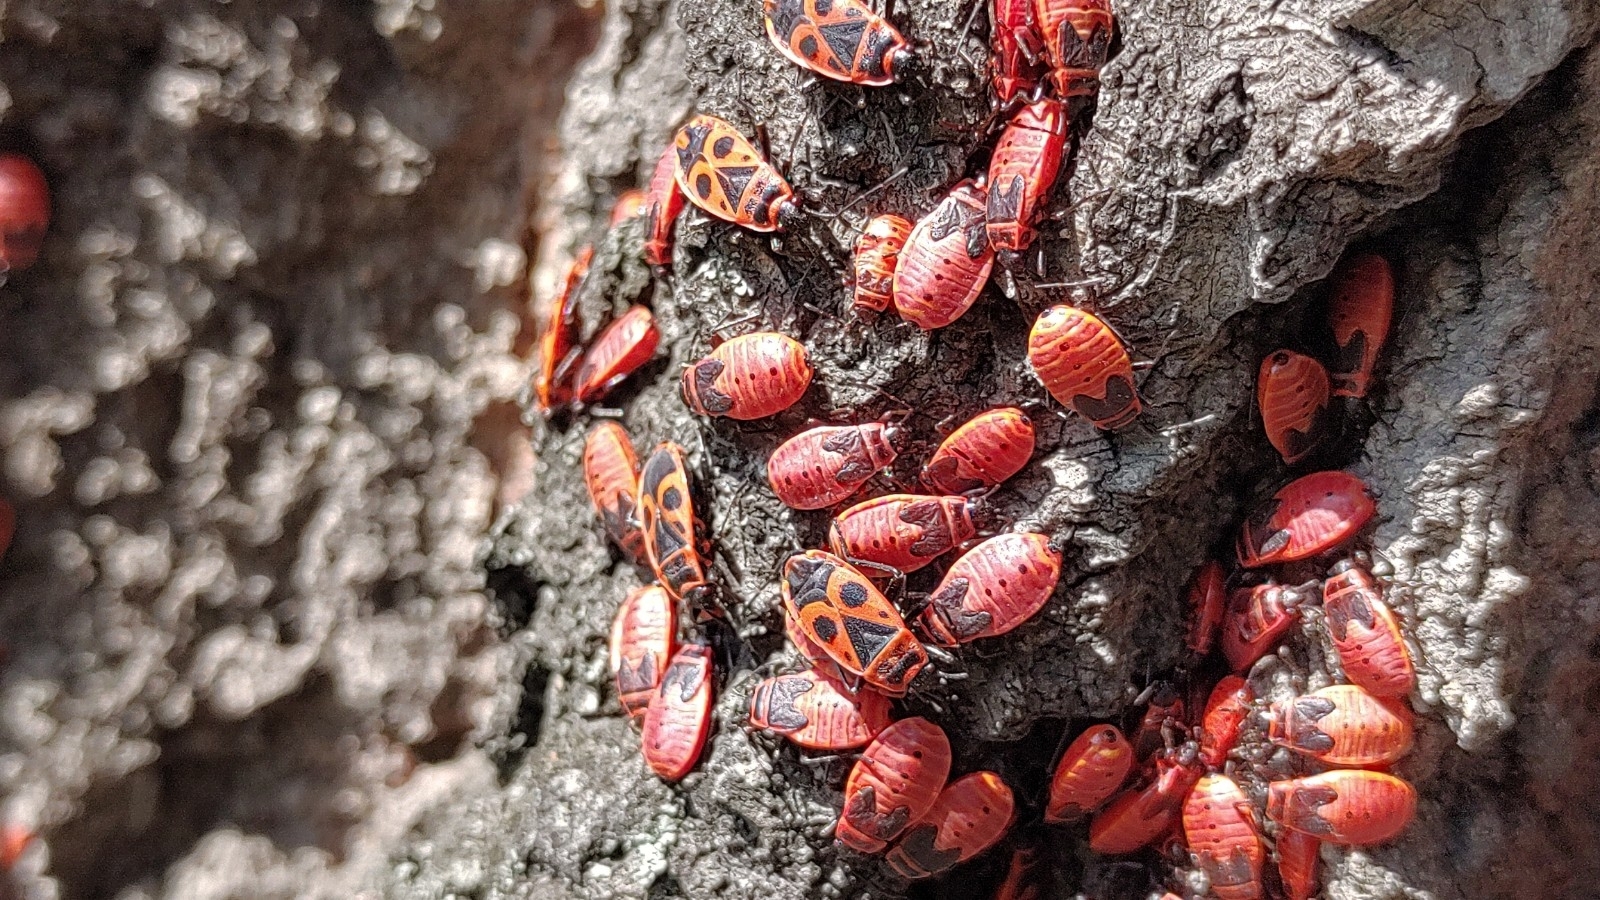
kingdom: Animalia
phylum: Arthropoda
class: Insecta
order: Hemiptera
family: Pyrrhocoridae
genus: Pyrrhocoris
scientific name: Pyrrhocoris apterus
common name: Firebug
